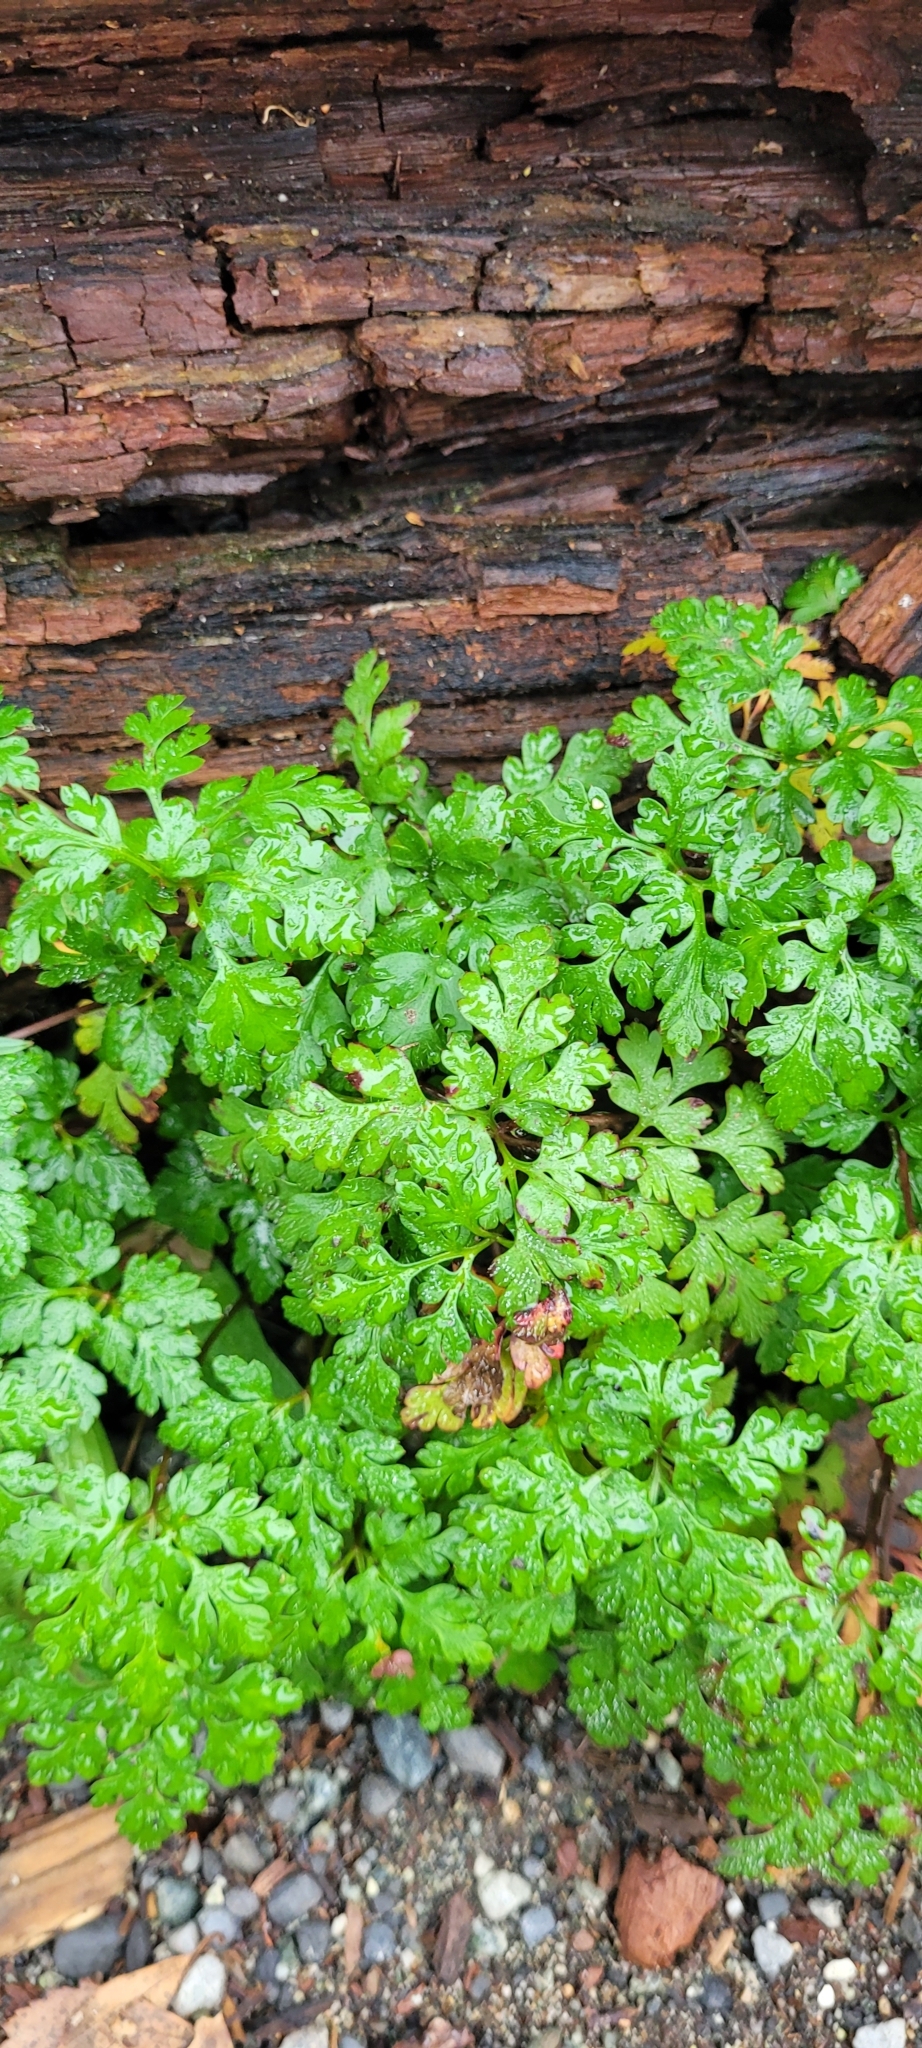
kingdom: Plantae
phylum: Tracheophyta
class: Magnoliopsida
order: Geraniales
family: Geraniaceae
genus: Geranium
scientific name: Geranium robertianum
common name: Herb-robert
